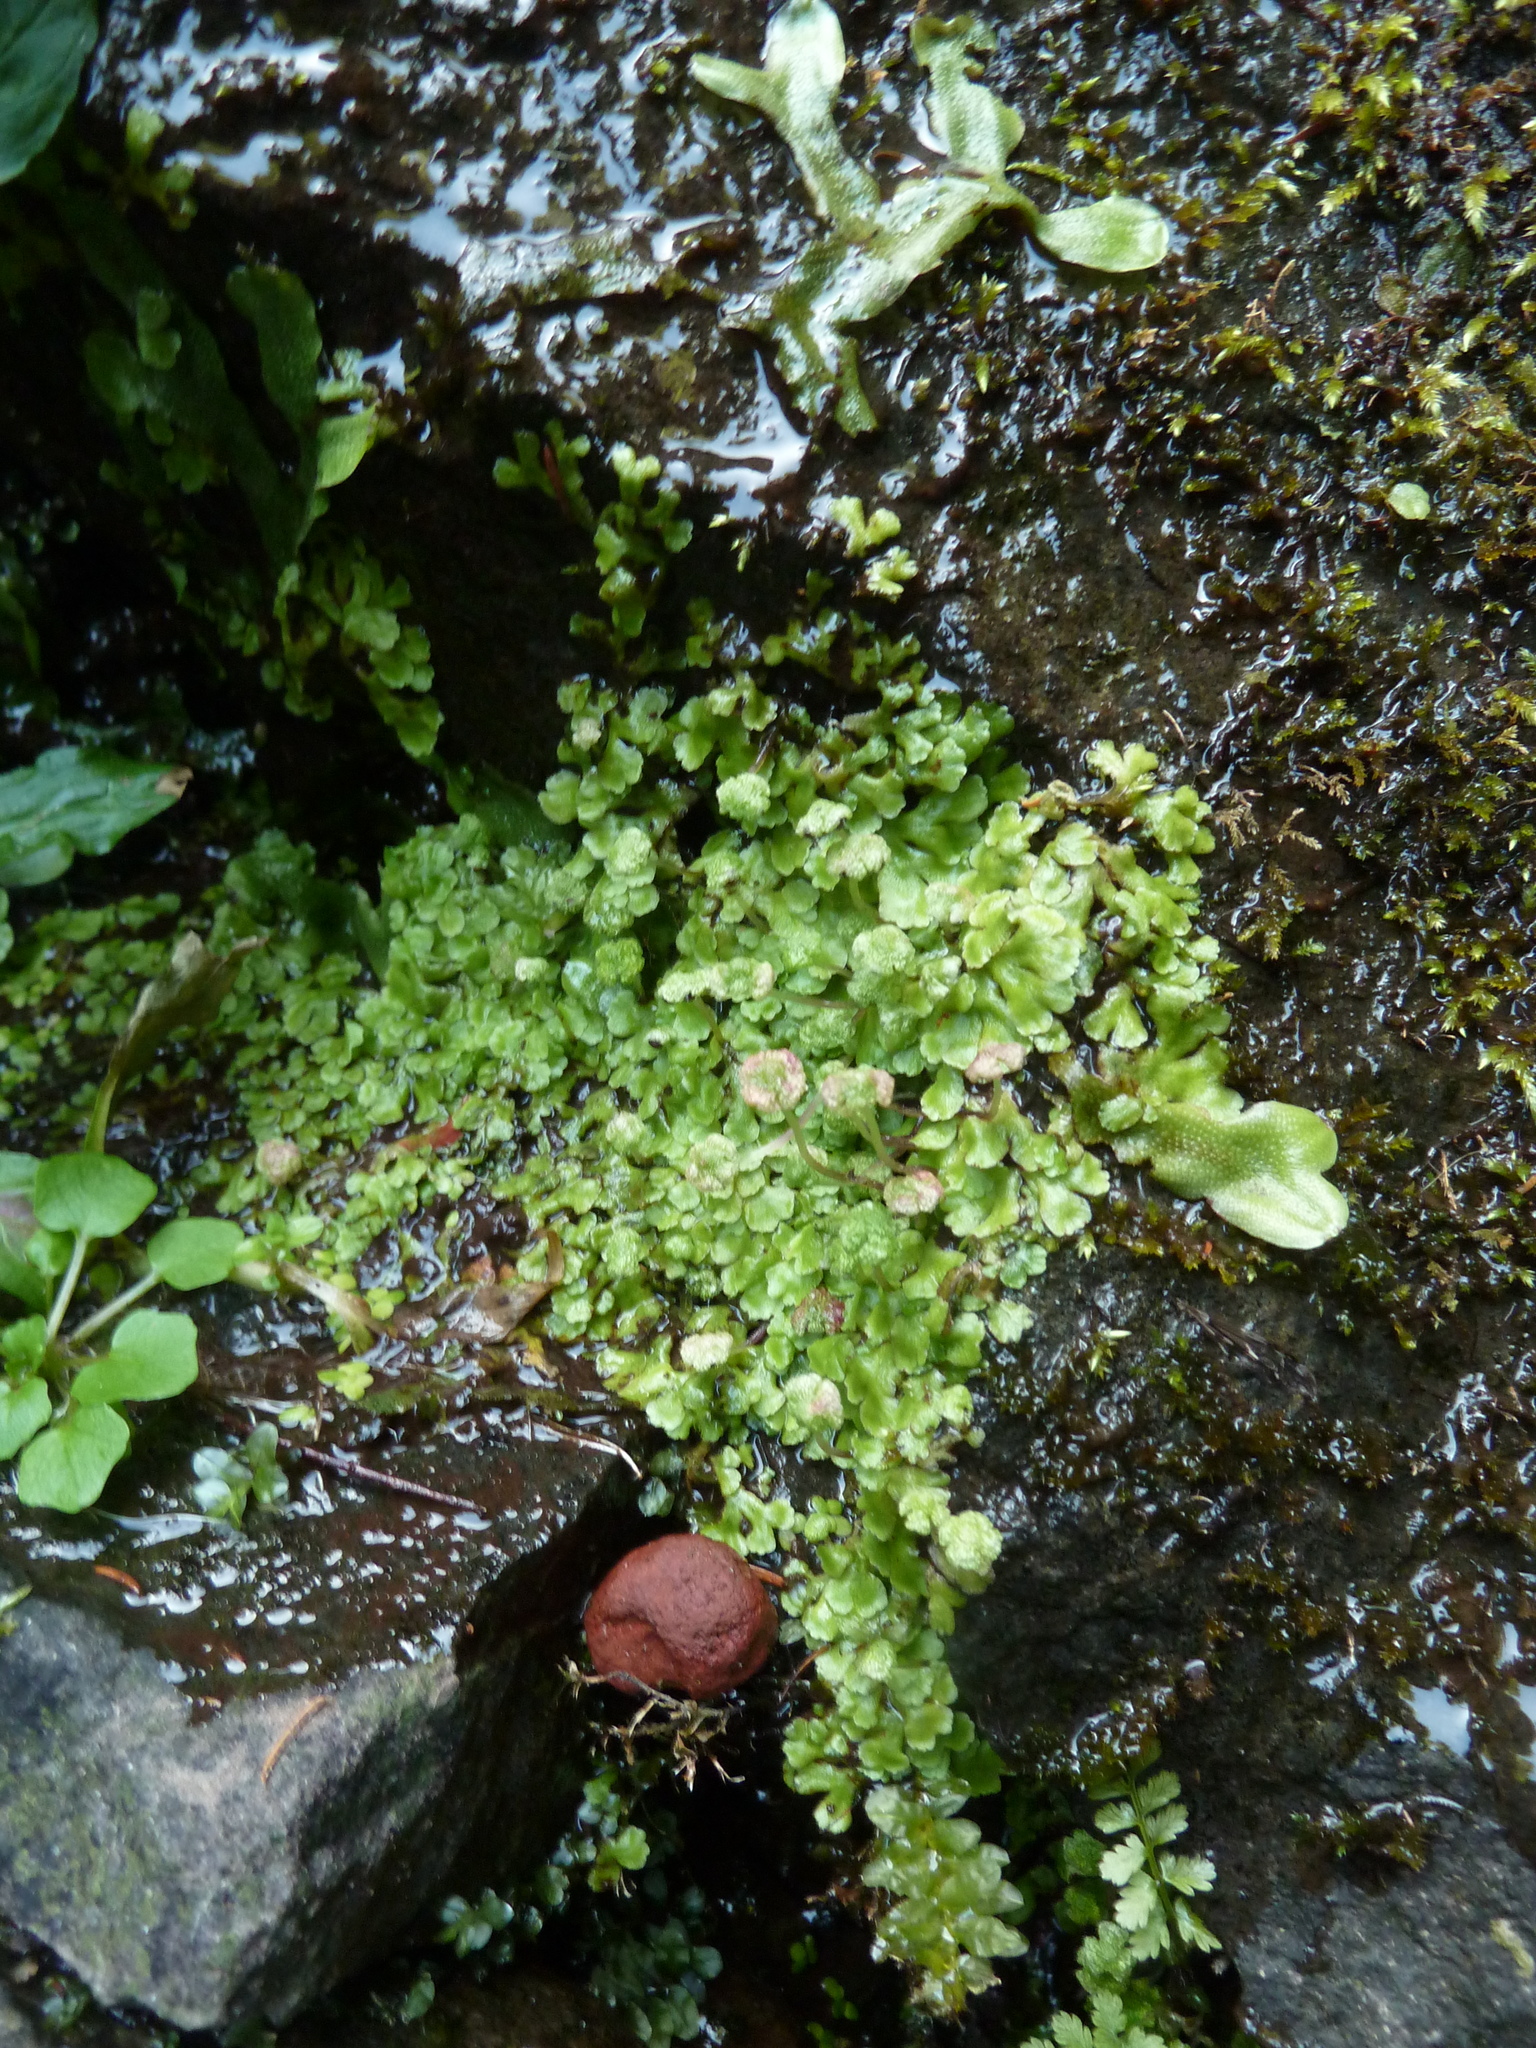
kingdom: Plantae
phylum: Marchantiophyta
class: Marchantiopsida
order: Marchantiales
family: Aytoniaceae
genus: Asterella
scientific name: Asterella africana
